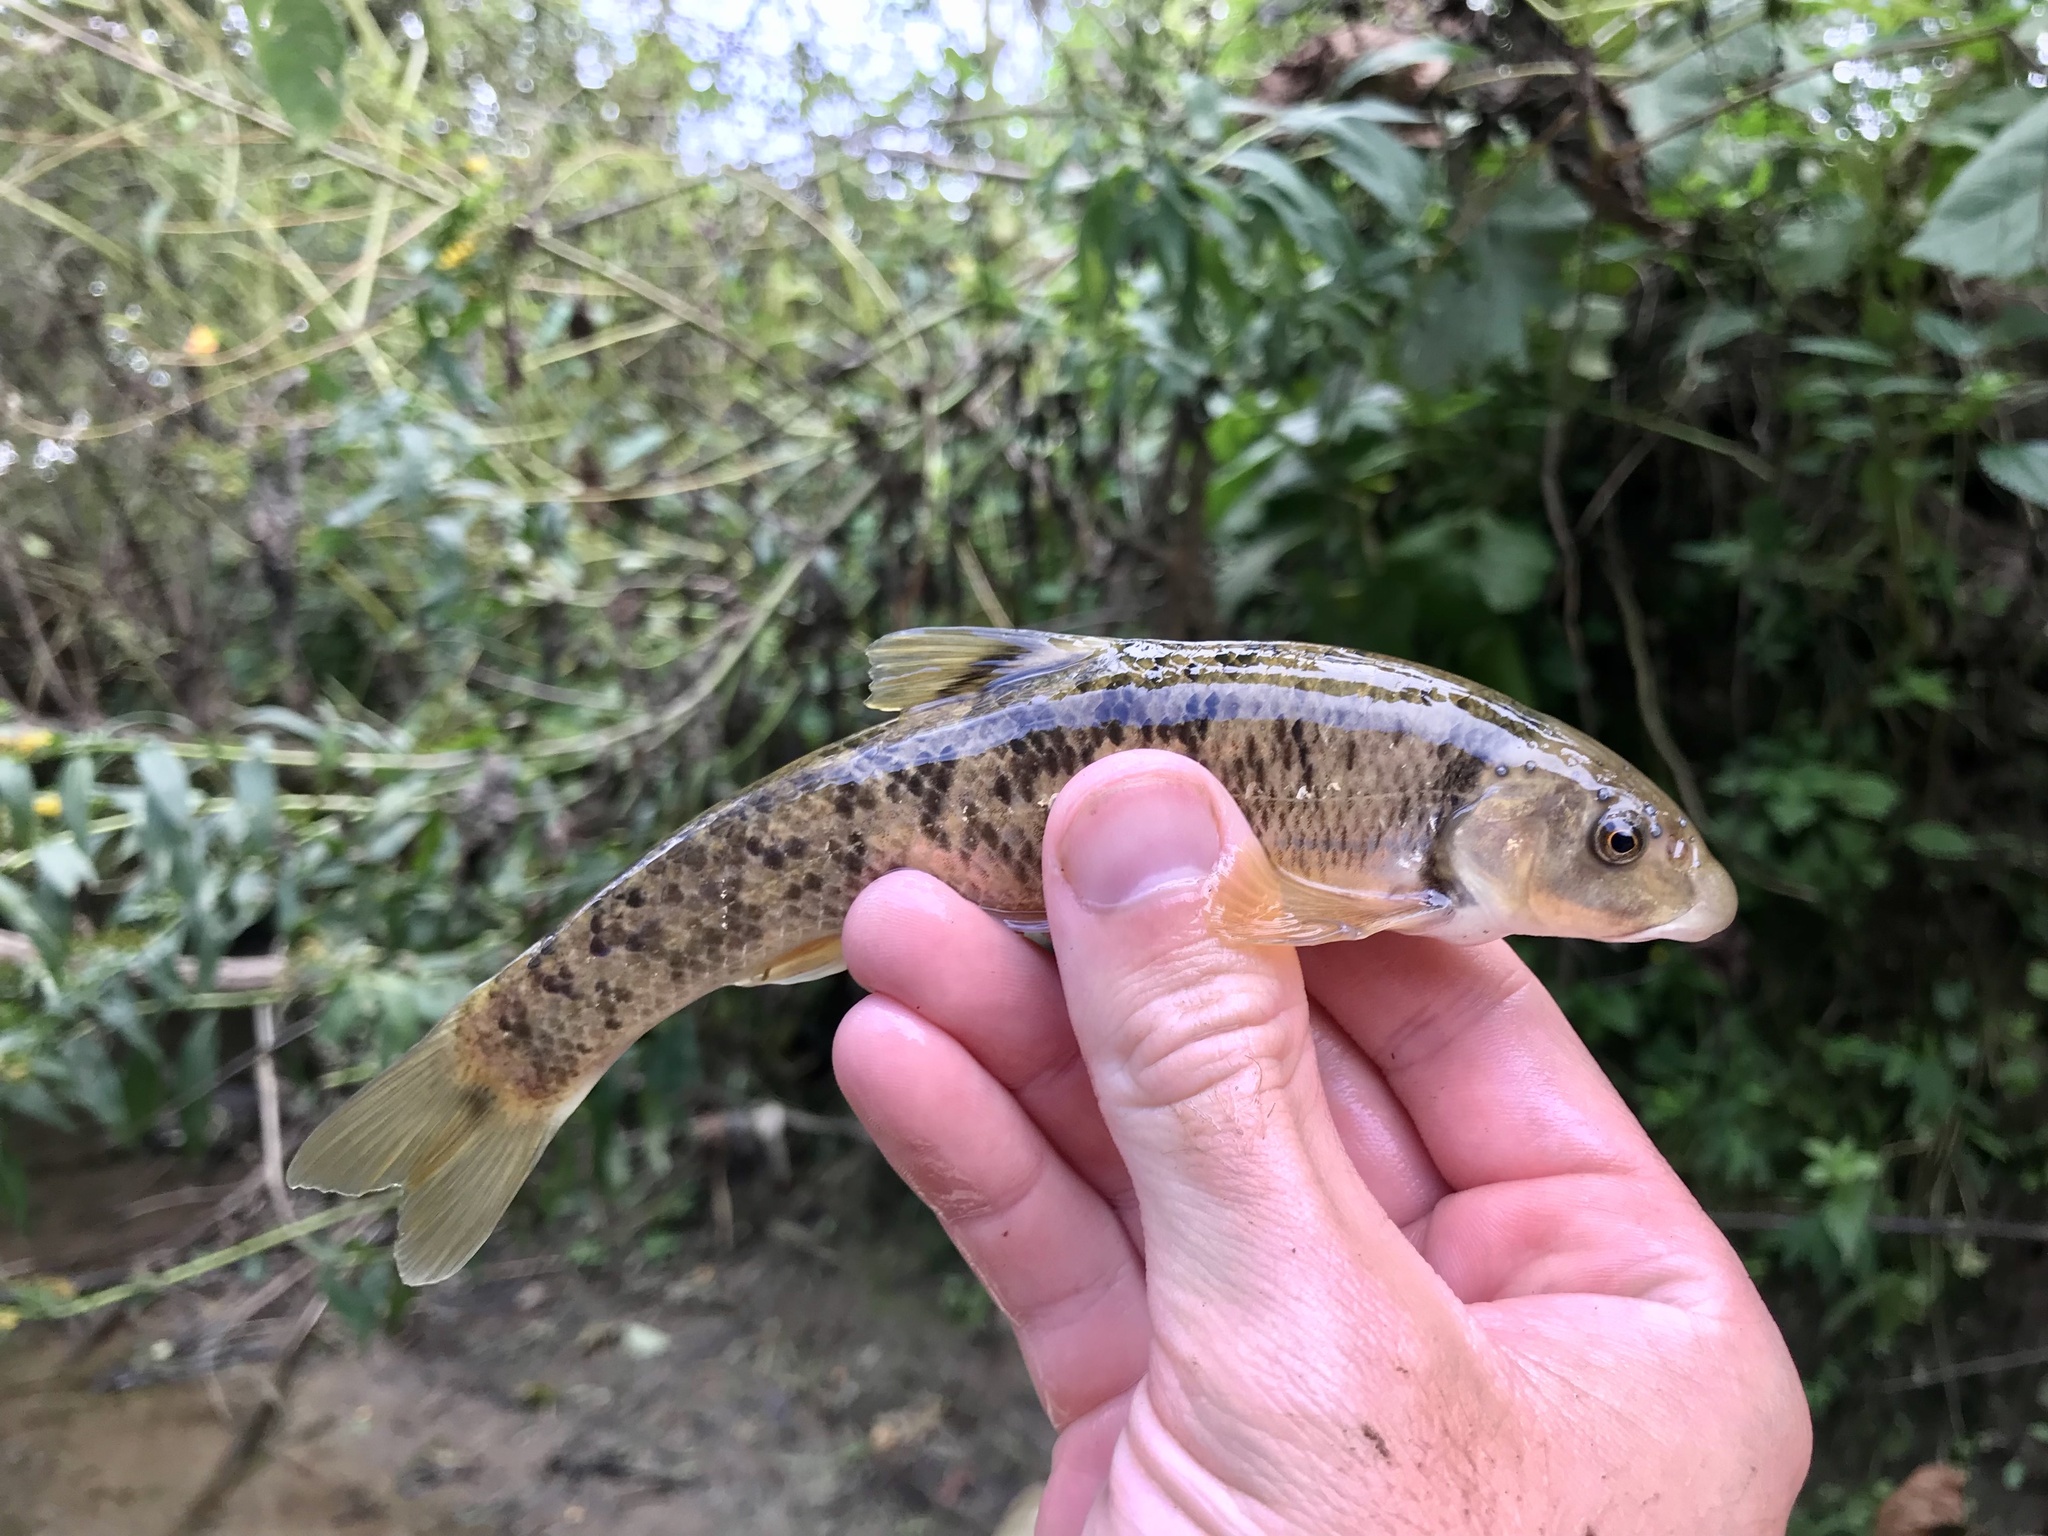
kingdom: Animalia
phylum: Chordata
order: Cypriniformes
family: Cyprinidae
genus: Campostoma
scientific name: Campostoma anomalum
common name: Central stoneroller
